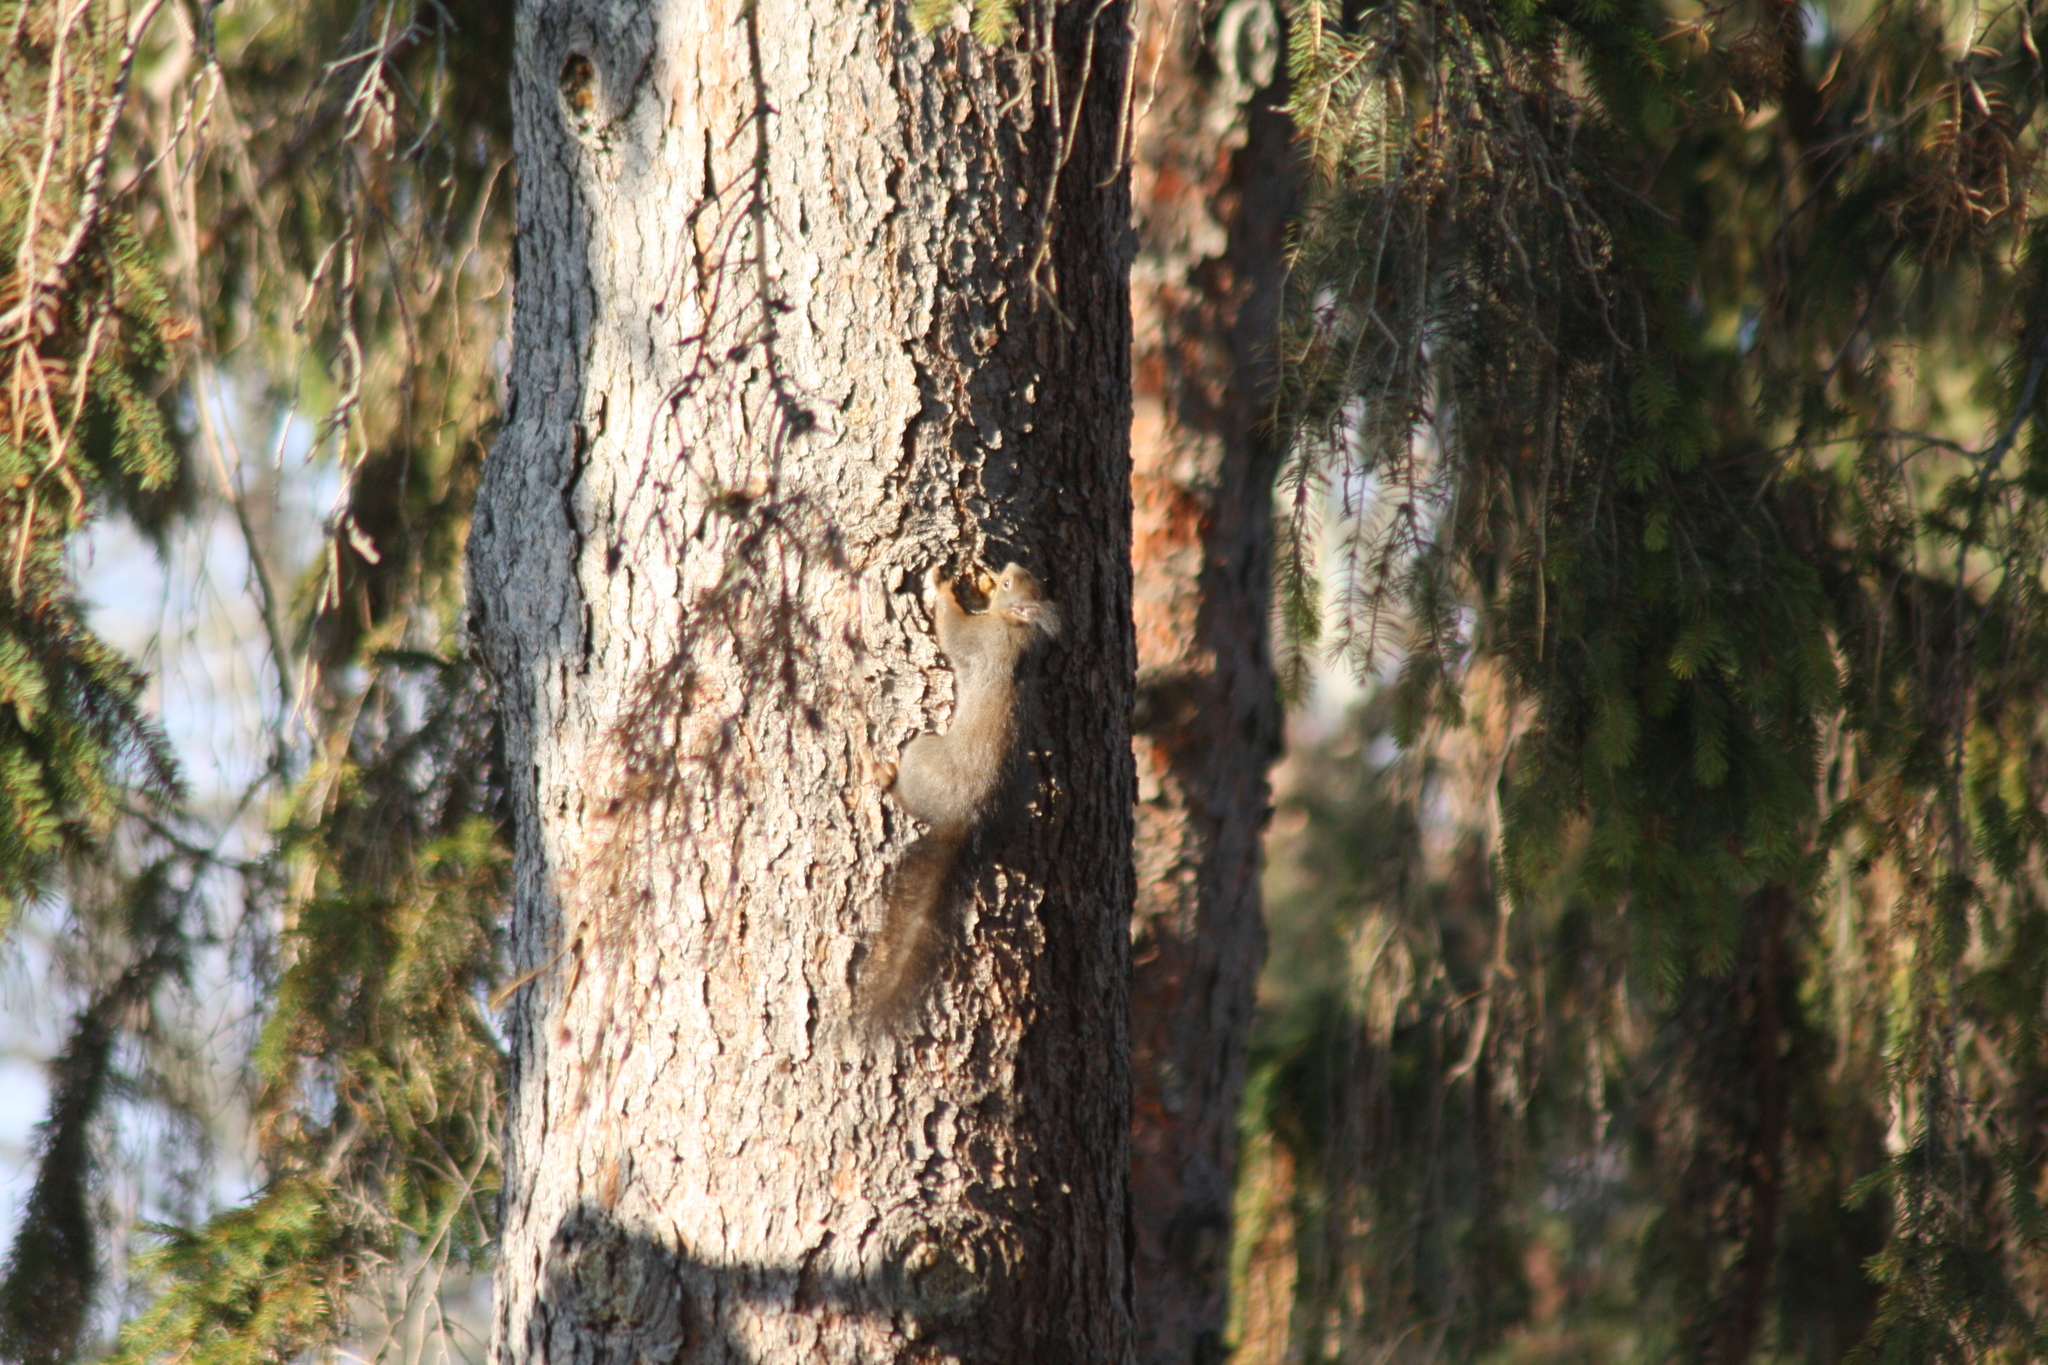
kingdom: Animalia
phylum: Chordata
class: Mammalia
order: Rodentia
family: Sciuridae
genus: Sciurus
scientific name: Sciurus vulgaris
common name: Eurasian red squirrel
